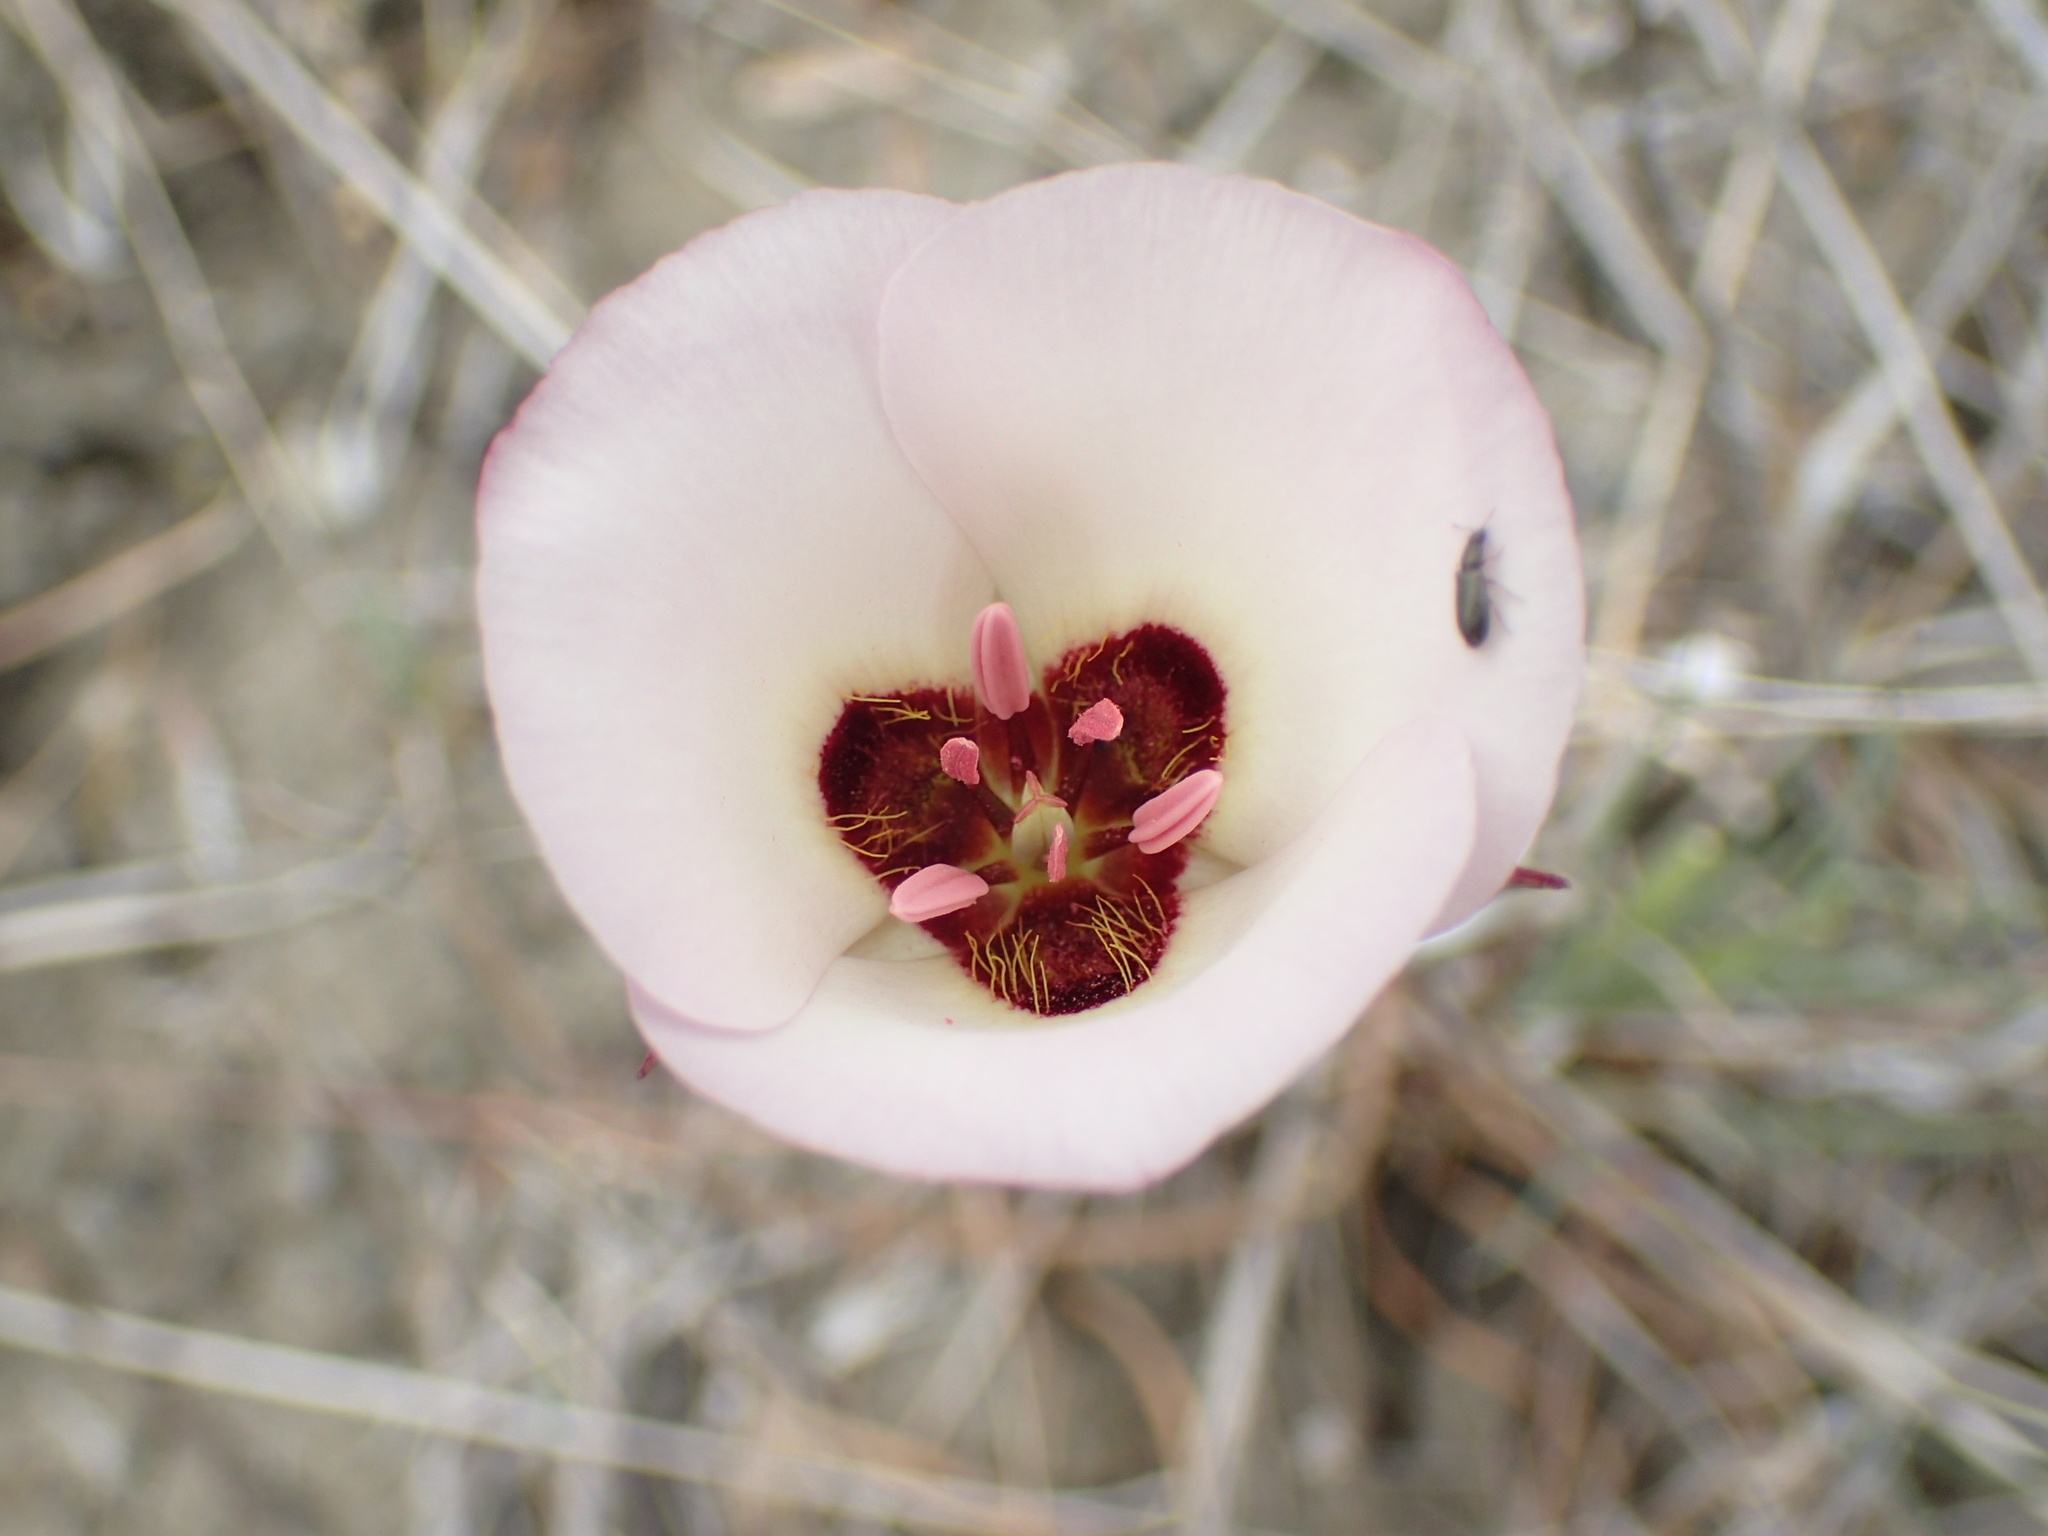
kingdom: Plantae
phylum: Tracheophyta
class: Liliopsida
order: Liliales
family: Liliaceae
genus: Calochortus
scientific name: Calochortus catalinae
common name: Catalina mariposa-lily
